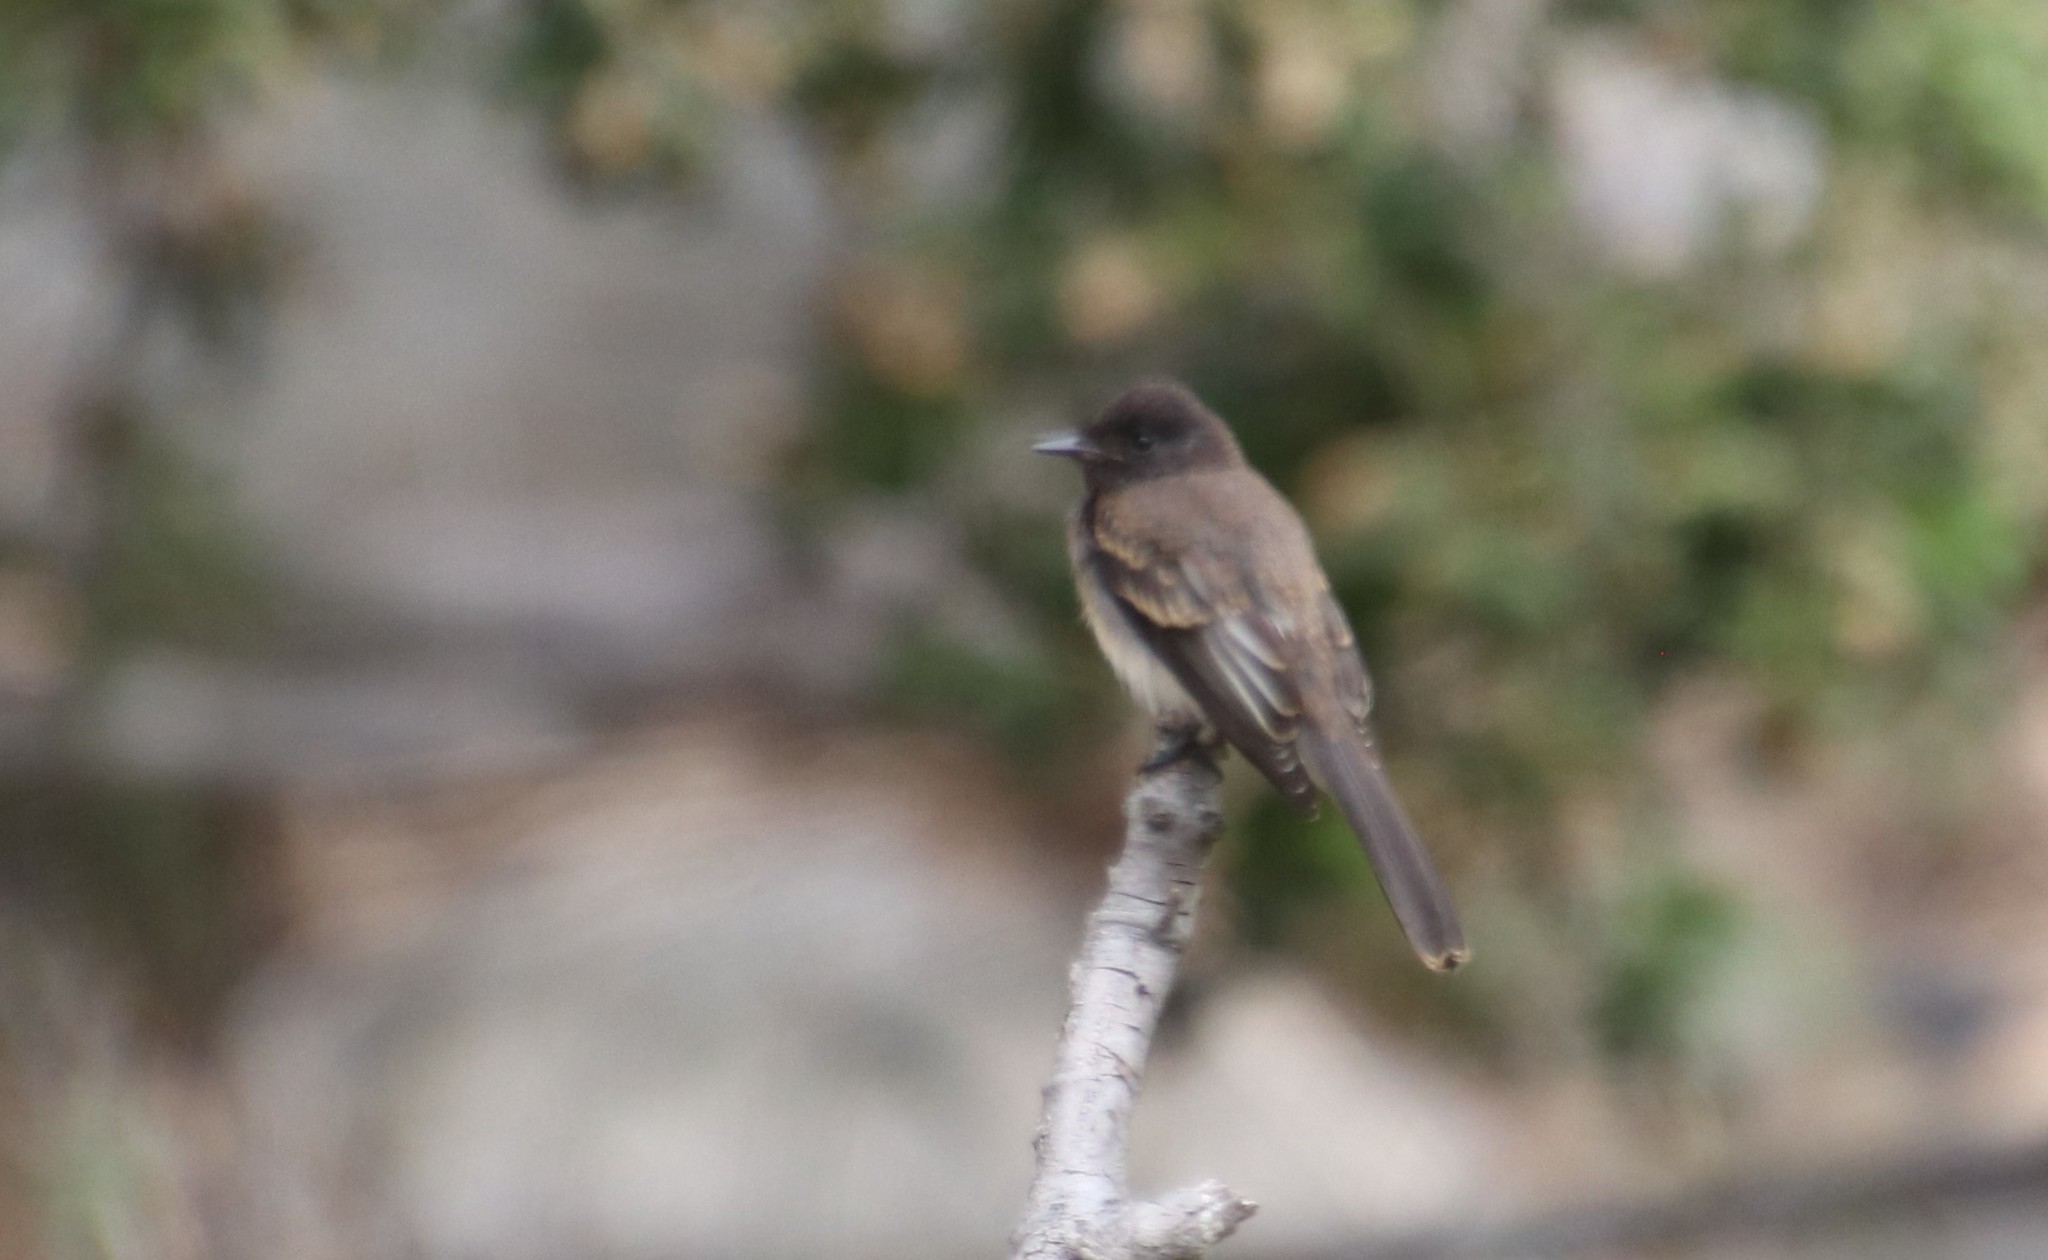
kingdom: Animalia
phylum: Chordata
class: Aves
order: Passeriformes
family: Tyrannidae
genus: Sayornis
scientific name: Sayornis nigricans
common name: Black phoebe
